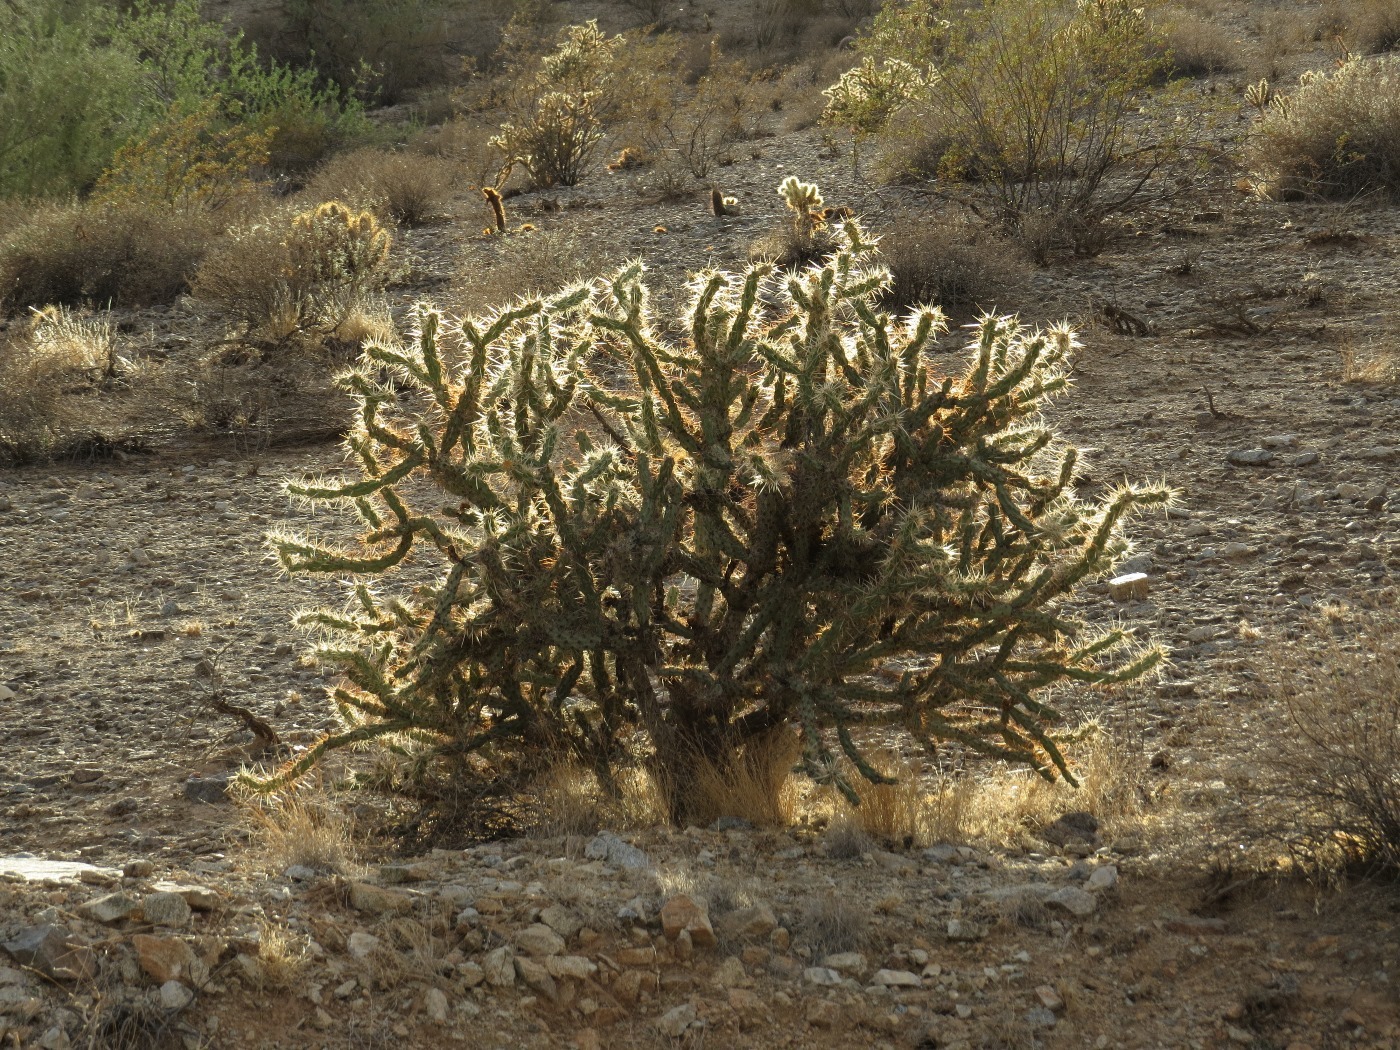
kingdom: Plantae
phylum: Tracheophyta
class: Magnoliopsida
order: Caryophyllales
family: Cactaceae
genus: Cylindropuntia
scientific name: Cylindropuntia acanthocarpa
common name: Buckhorn cholla
